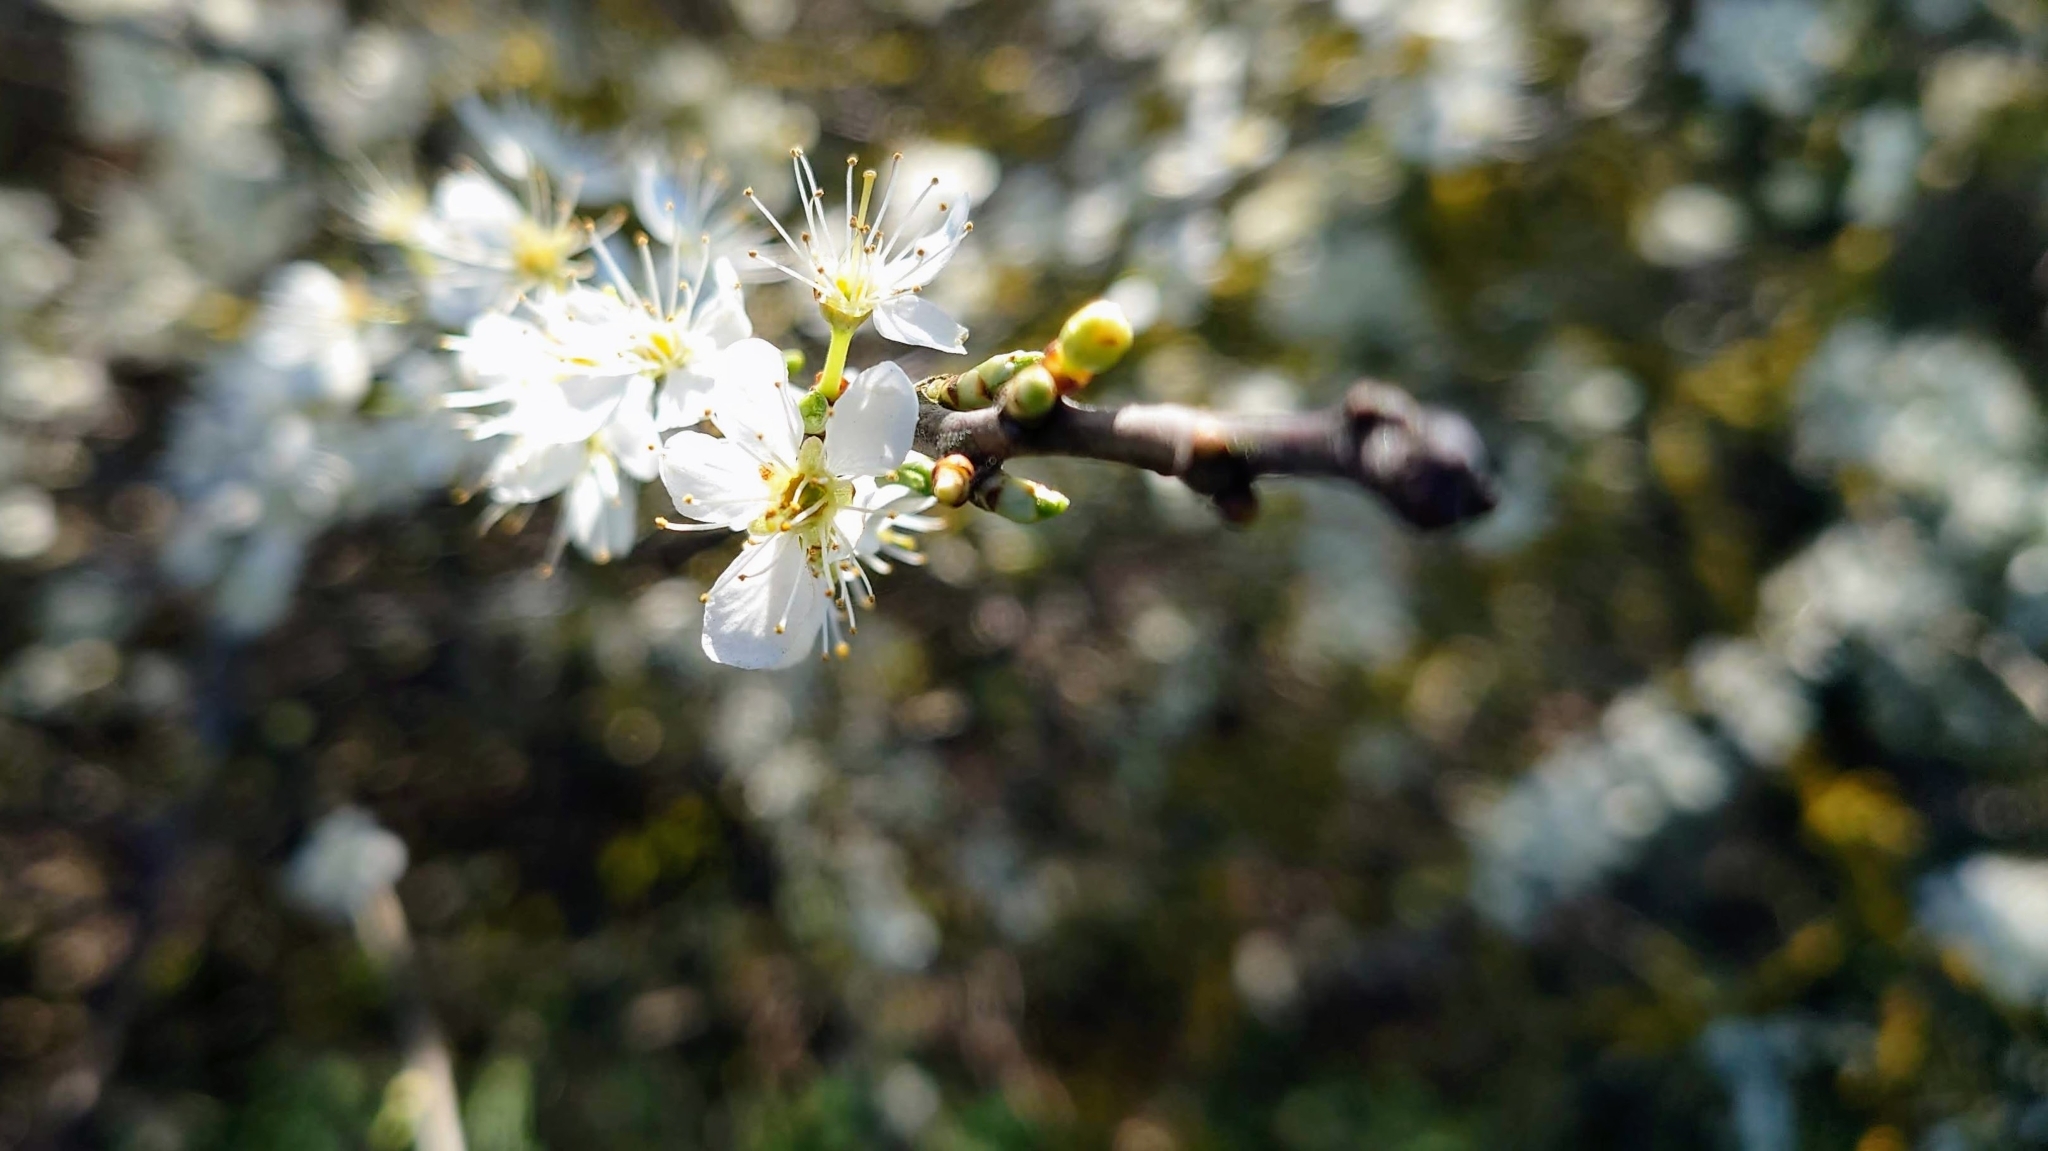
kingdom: Plantae
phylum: Tracheophyta
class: Magnoliopsida
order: Rosales
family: Rosaceae
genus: Prunus
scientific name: Prunus spinosa
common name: Blackthorn
